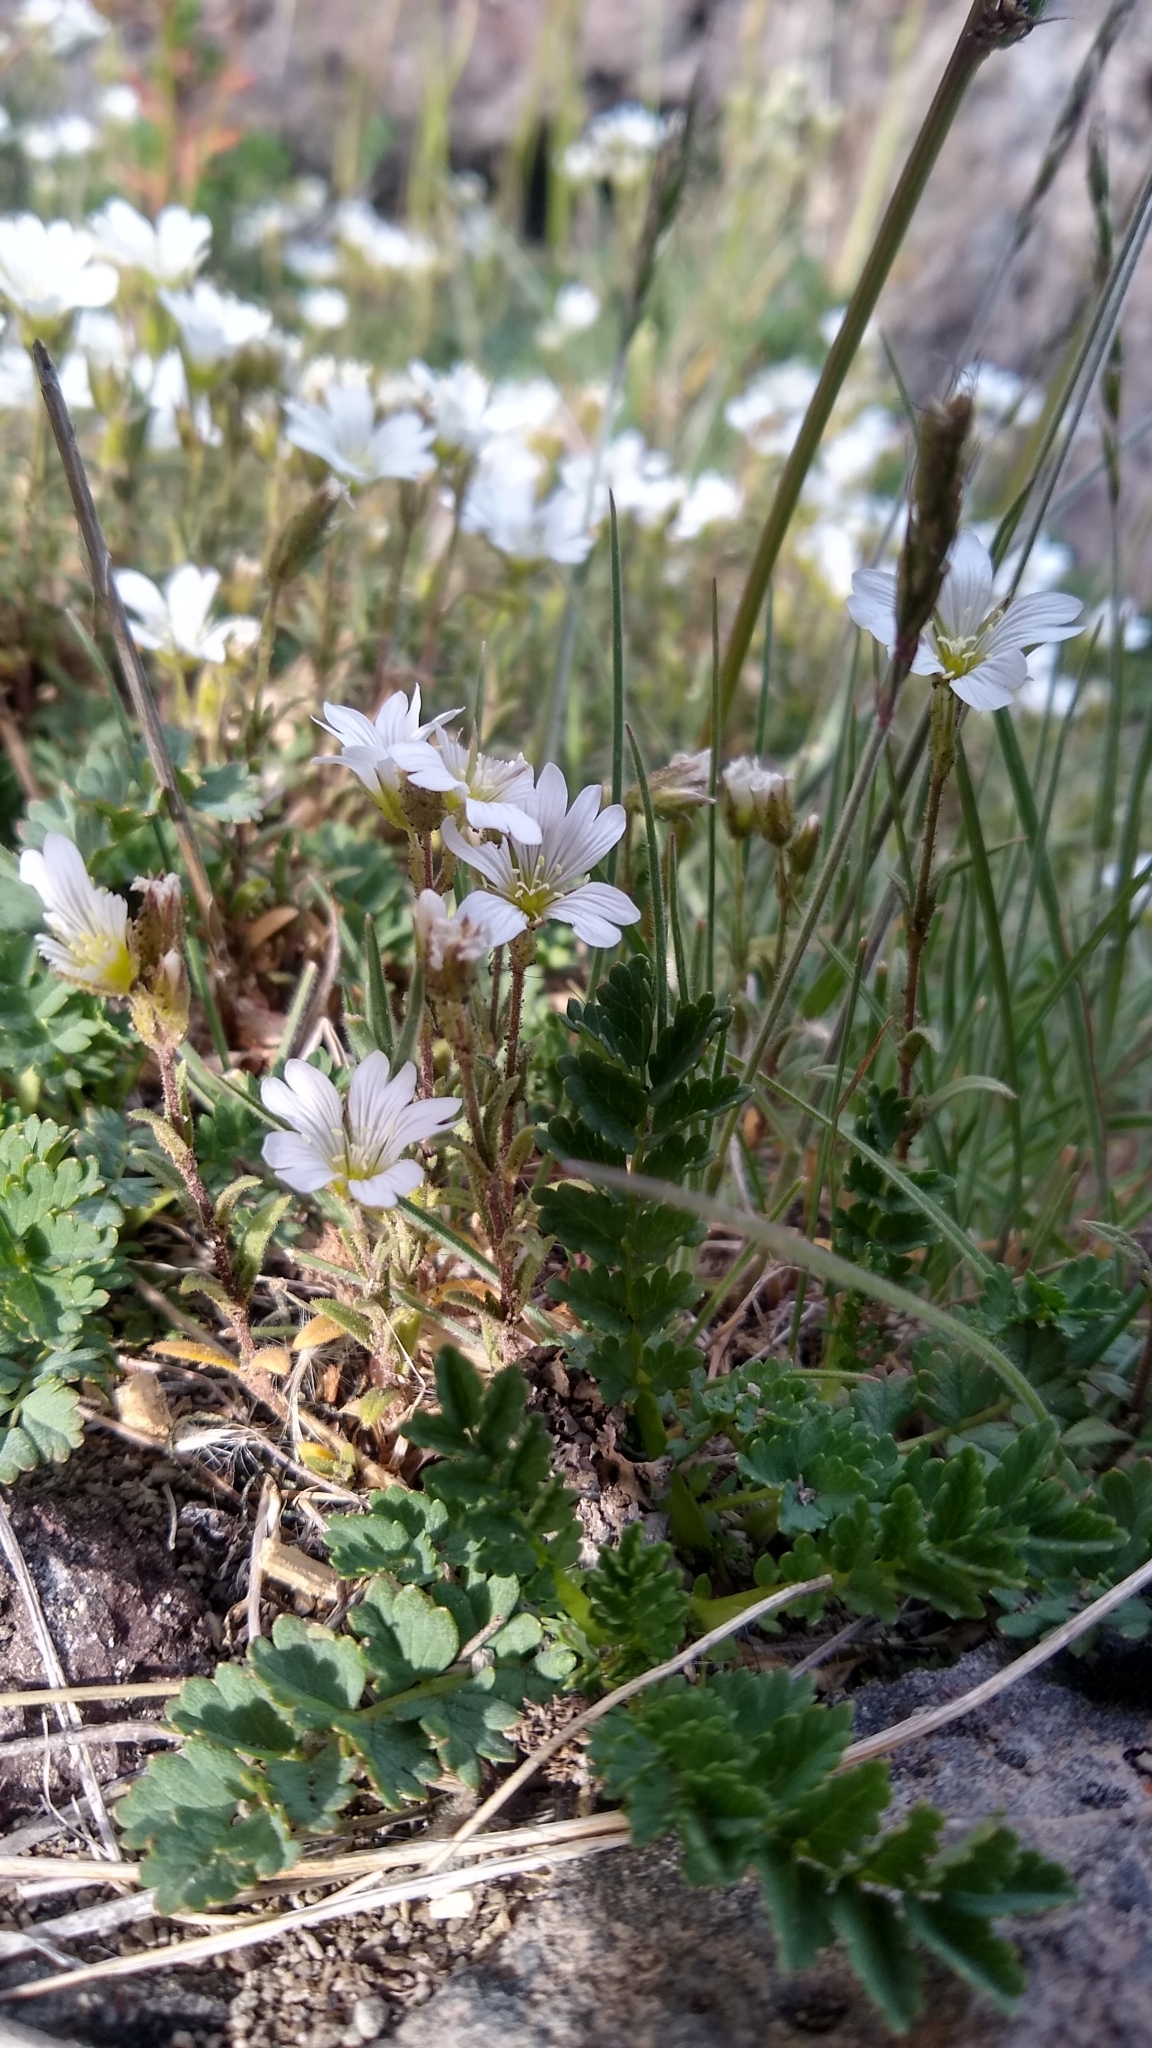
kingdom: Plantae
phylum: Tracheophyta
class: Magnoliopsida
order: Caryophyllales
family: Caryophyllaceae
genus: Cerastium
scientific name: Cerastium arvense
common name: Field mouse-ear
